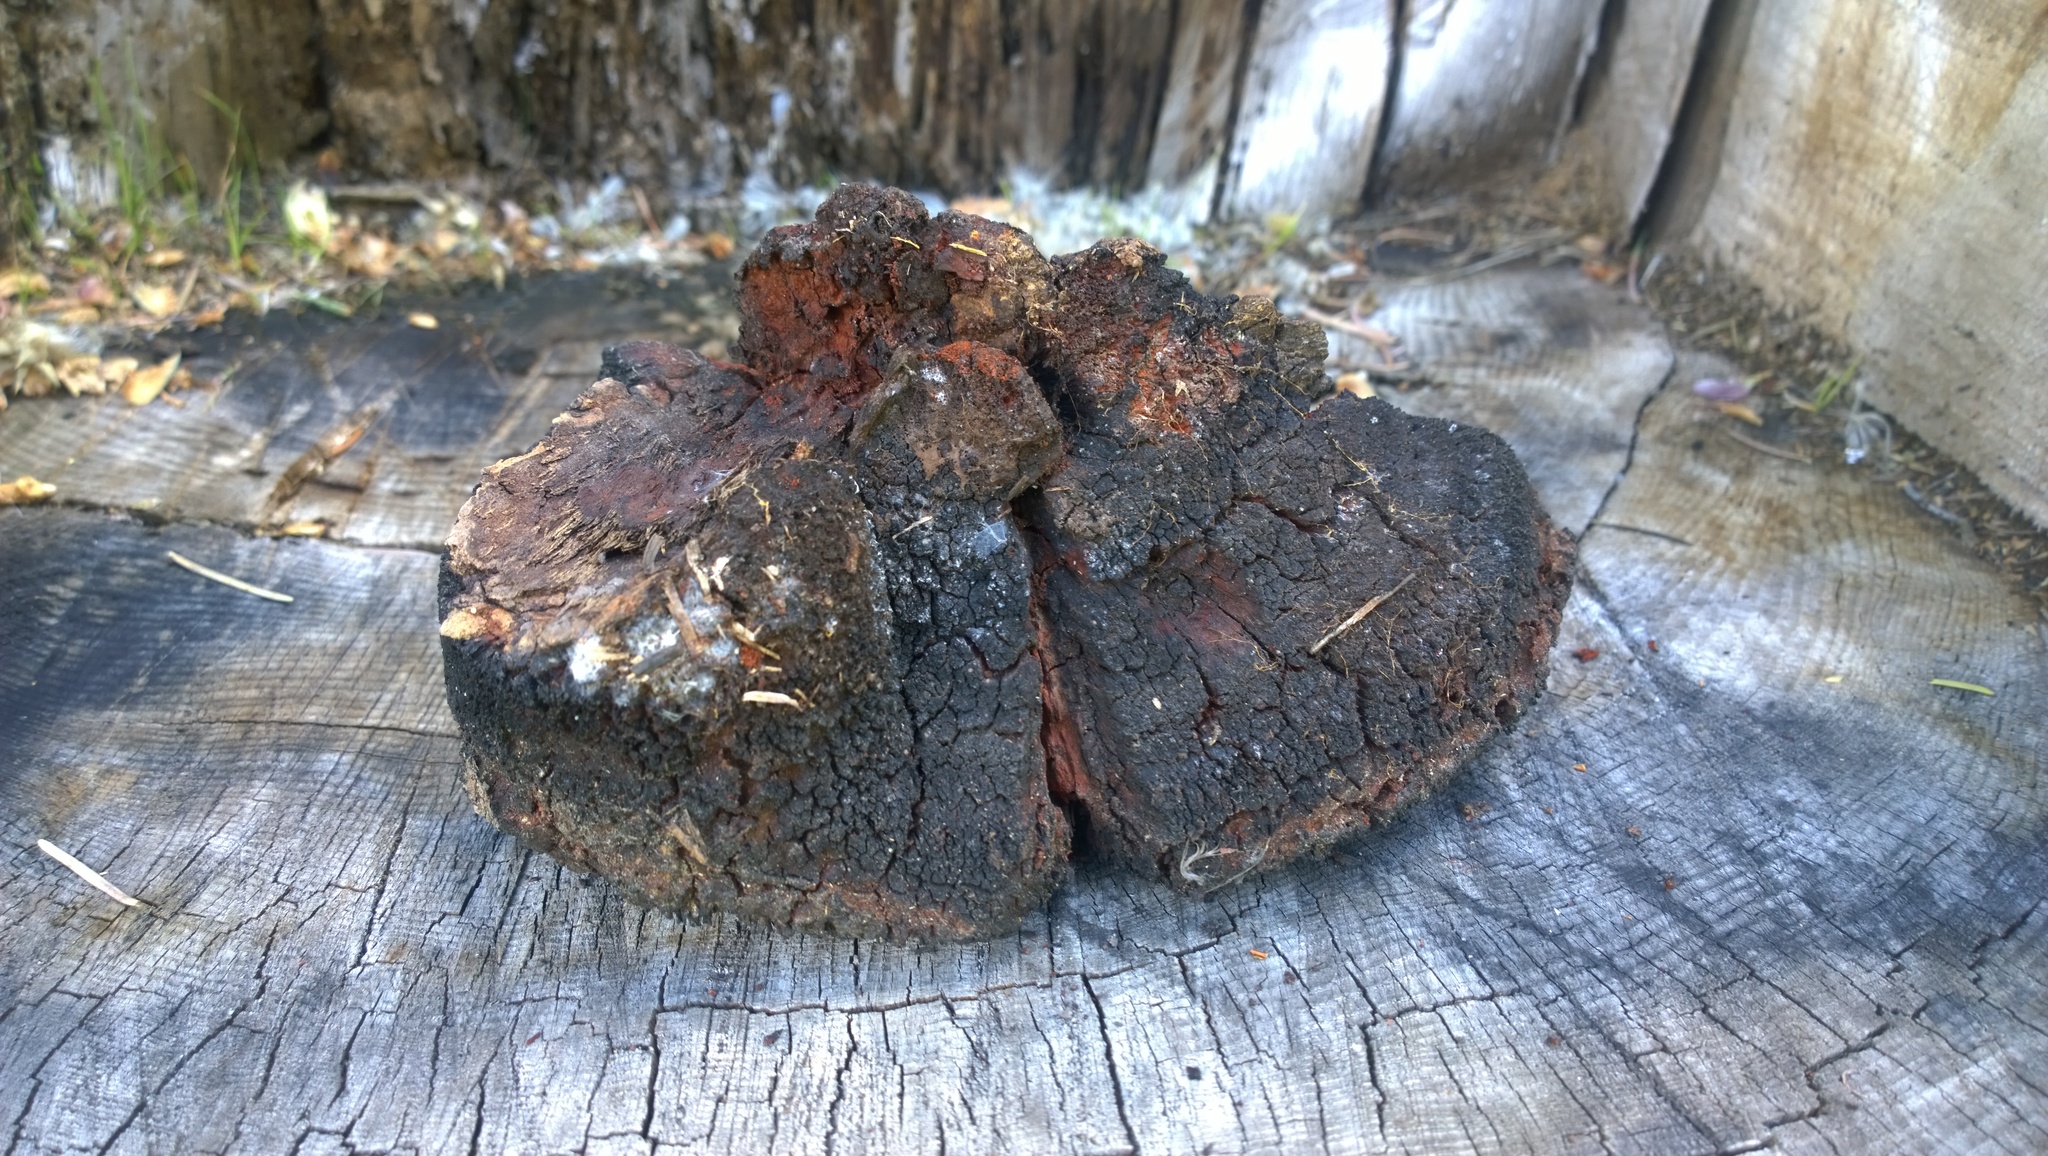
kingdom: Fungi
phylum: Basidiomycota
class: Agaricomycetes
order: Russulales
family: Echinodontiaceae
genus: Echinodontium
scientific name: Echinodontium tinctorium
